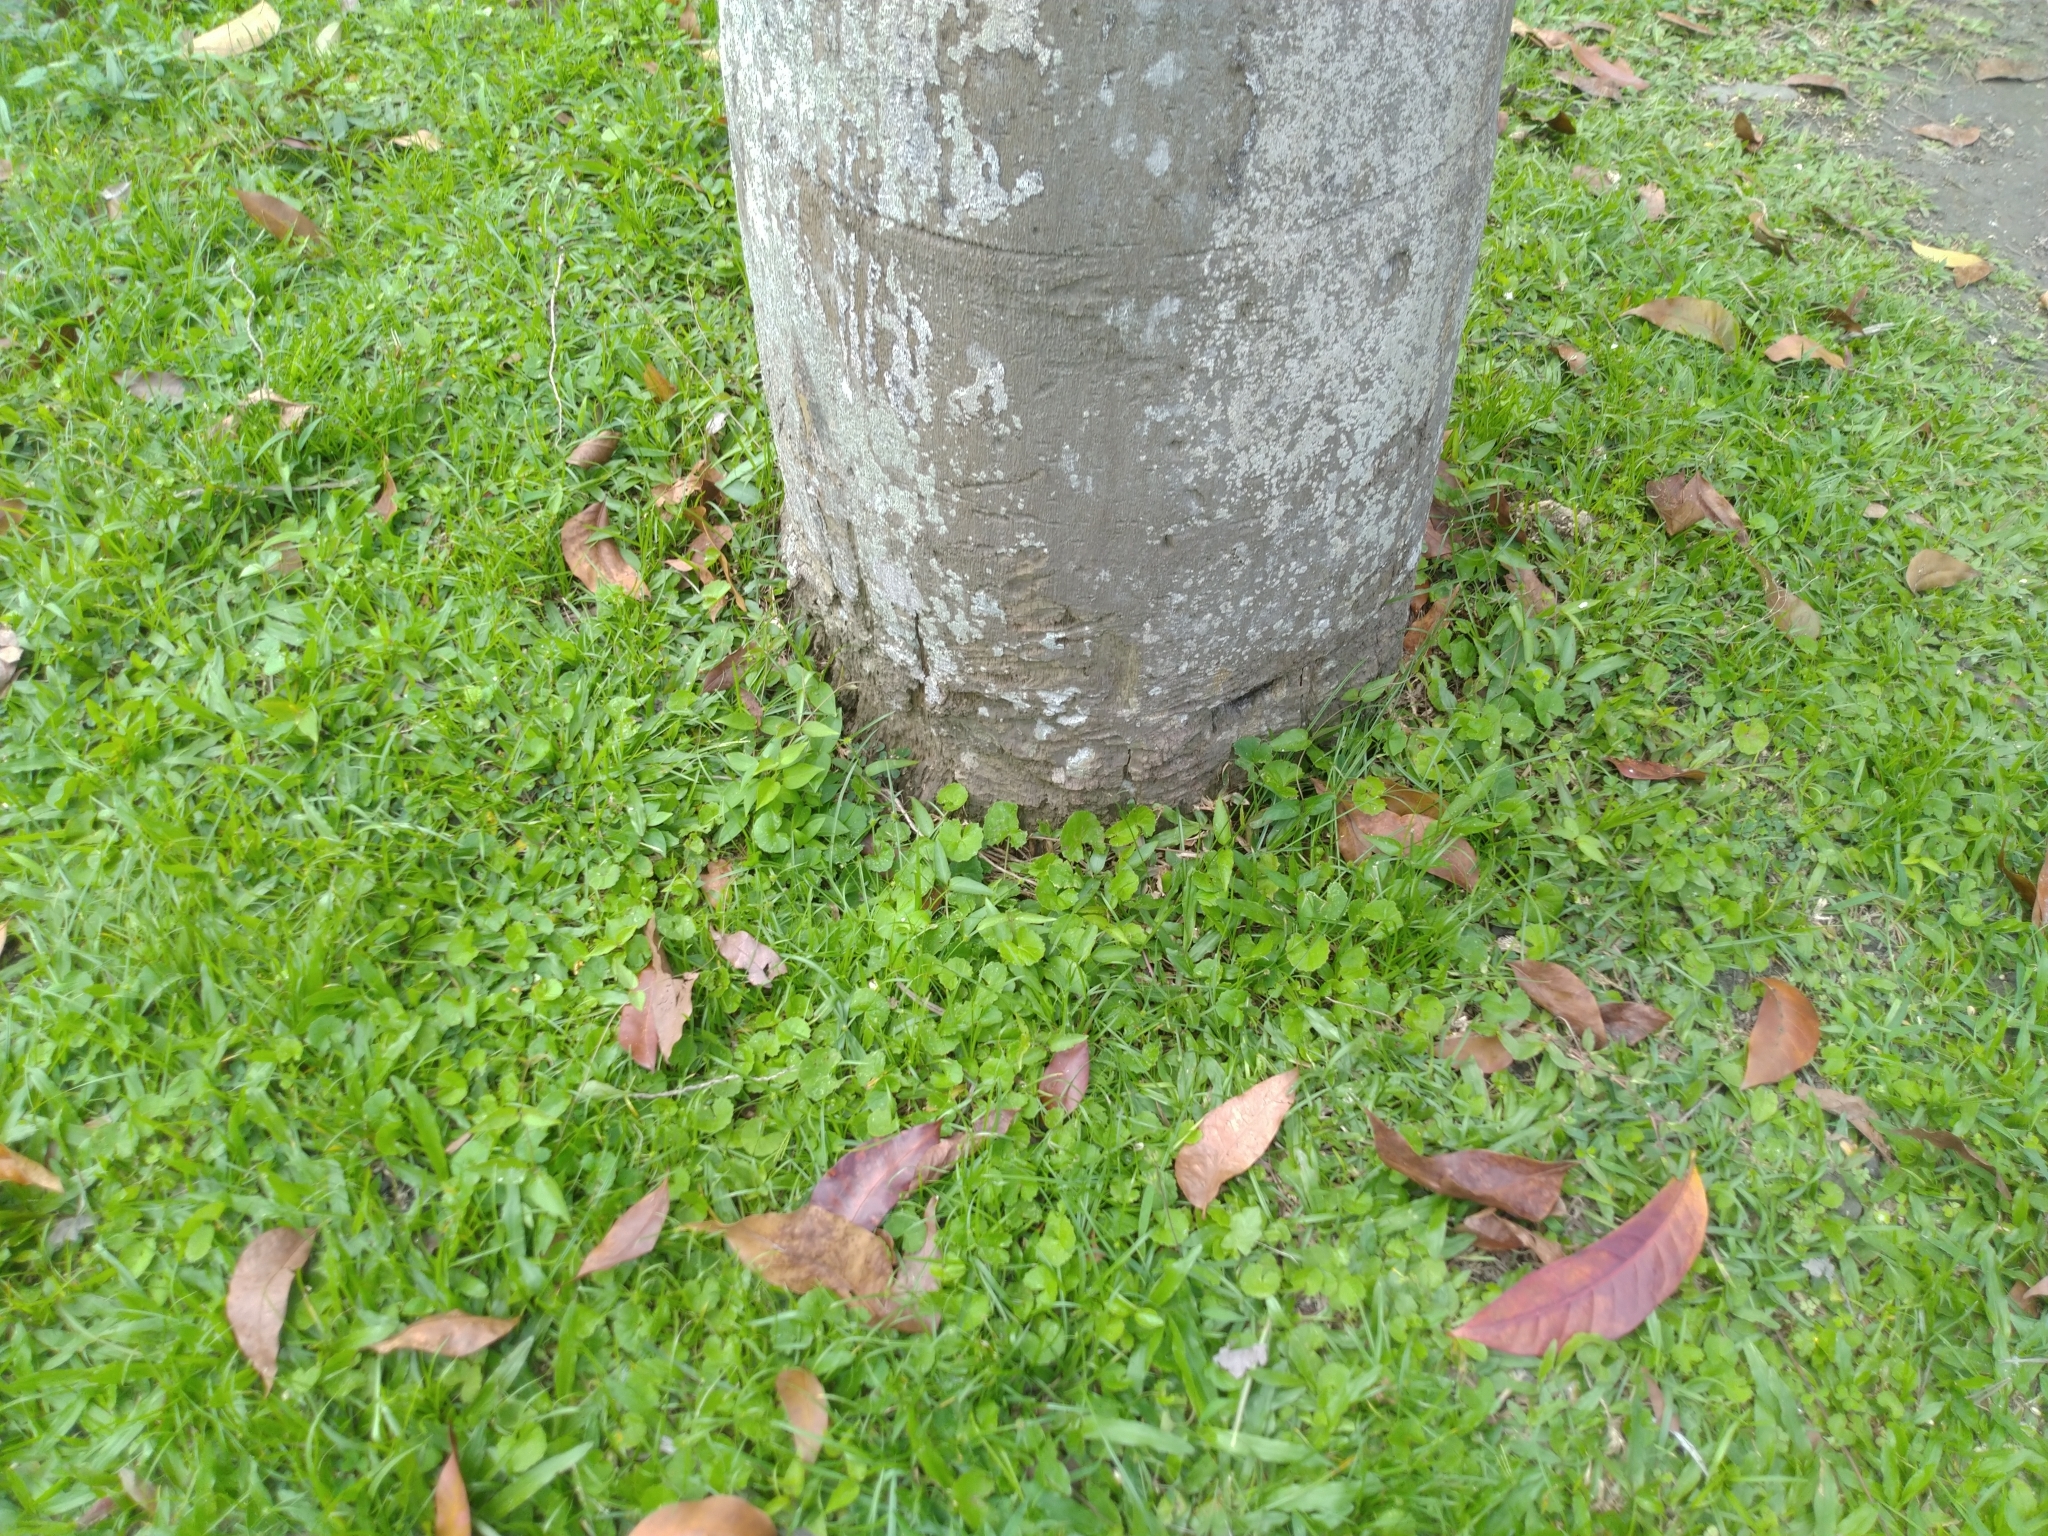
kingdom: Plantae
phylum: Tracheophyta
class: Magnoliopsida
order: Apiales
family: Apiaceae
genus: Centella
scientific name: Centella asiatica
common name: Spadeleaf
